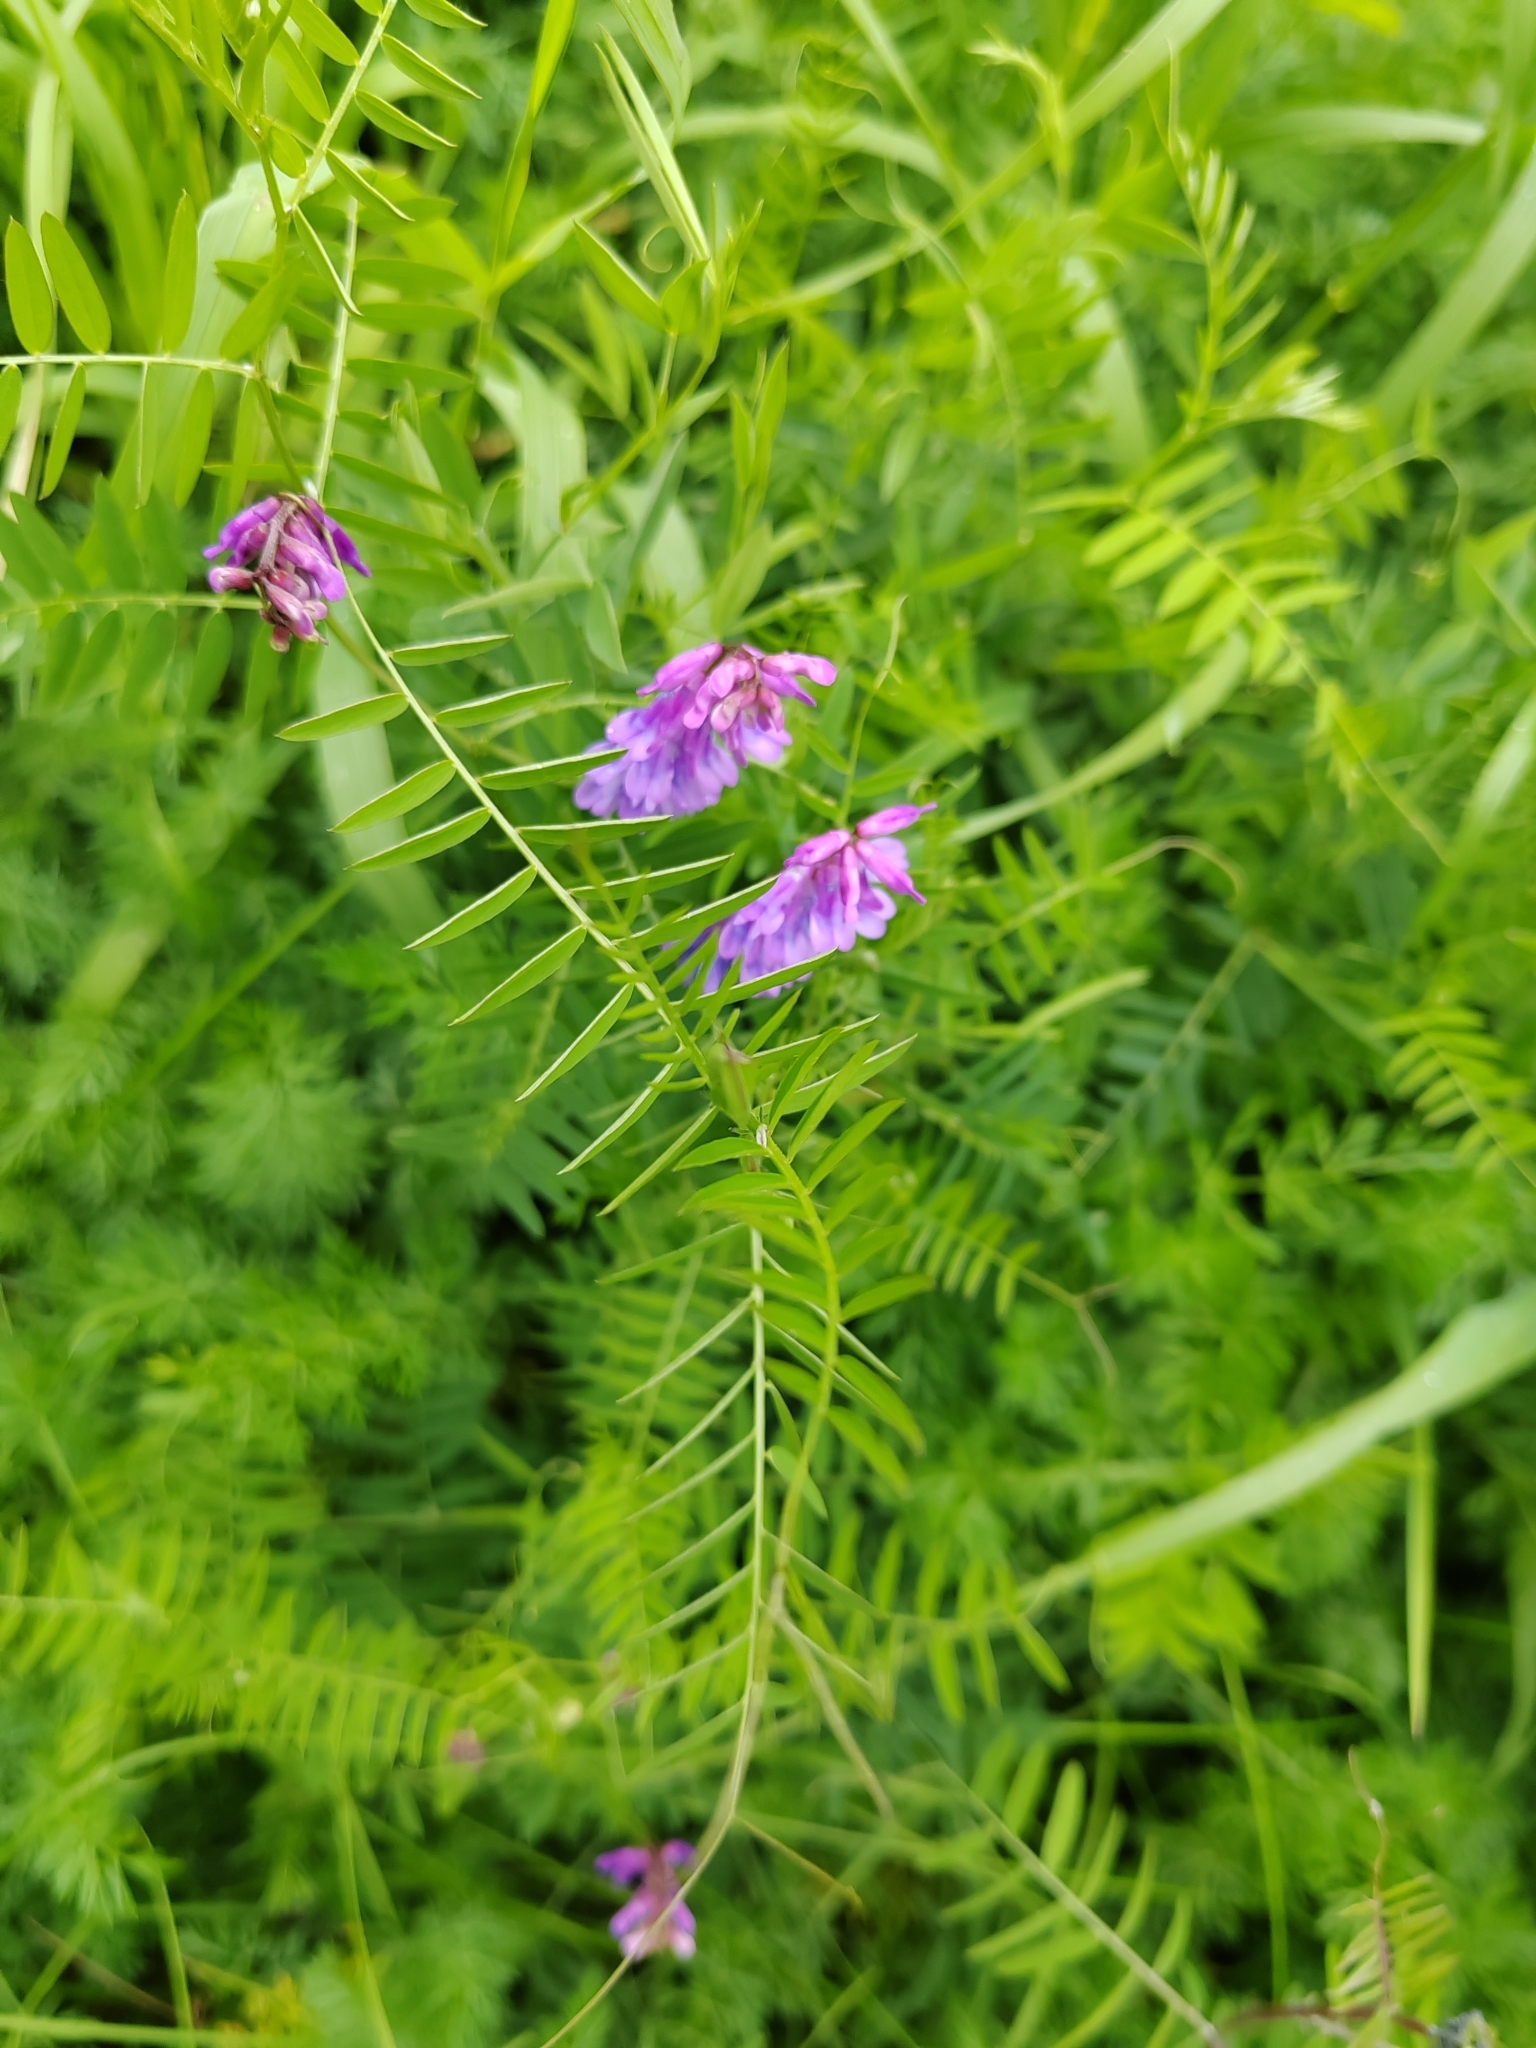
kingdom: Plantae
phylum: Tracheophyta
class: Magnoliopsida
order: Fabales
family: Fabaceae
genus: Vicia
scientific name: Vicia cracca
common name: Bird vetch
